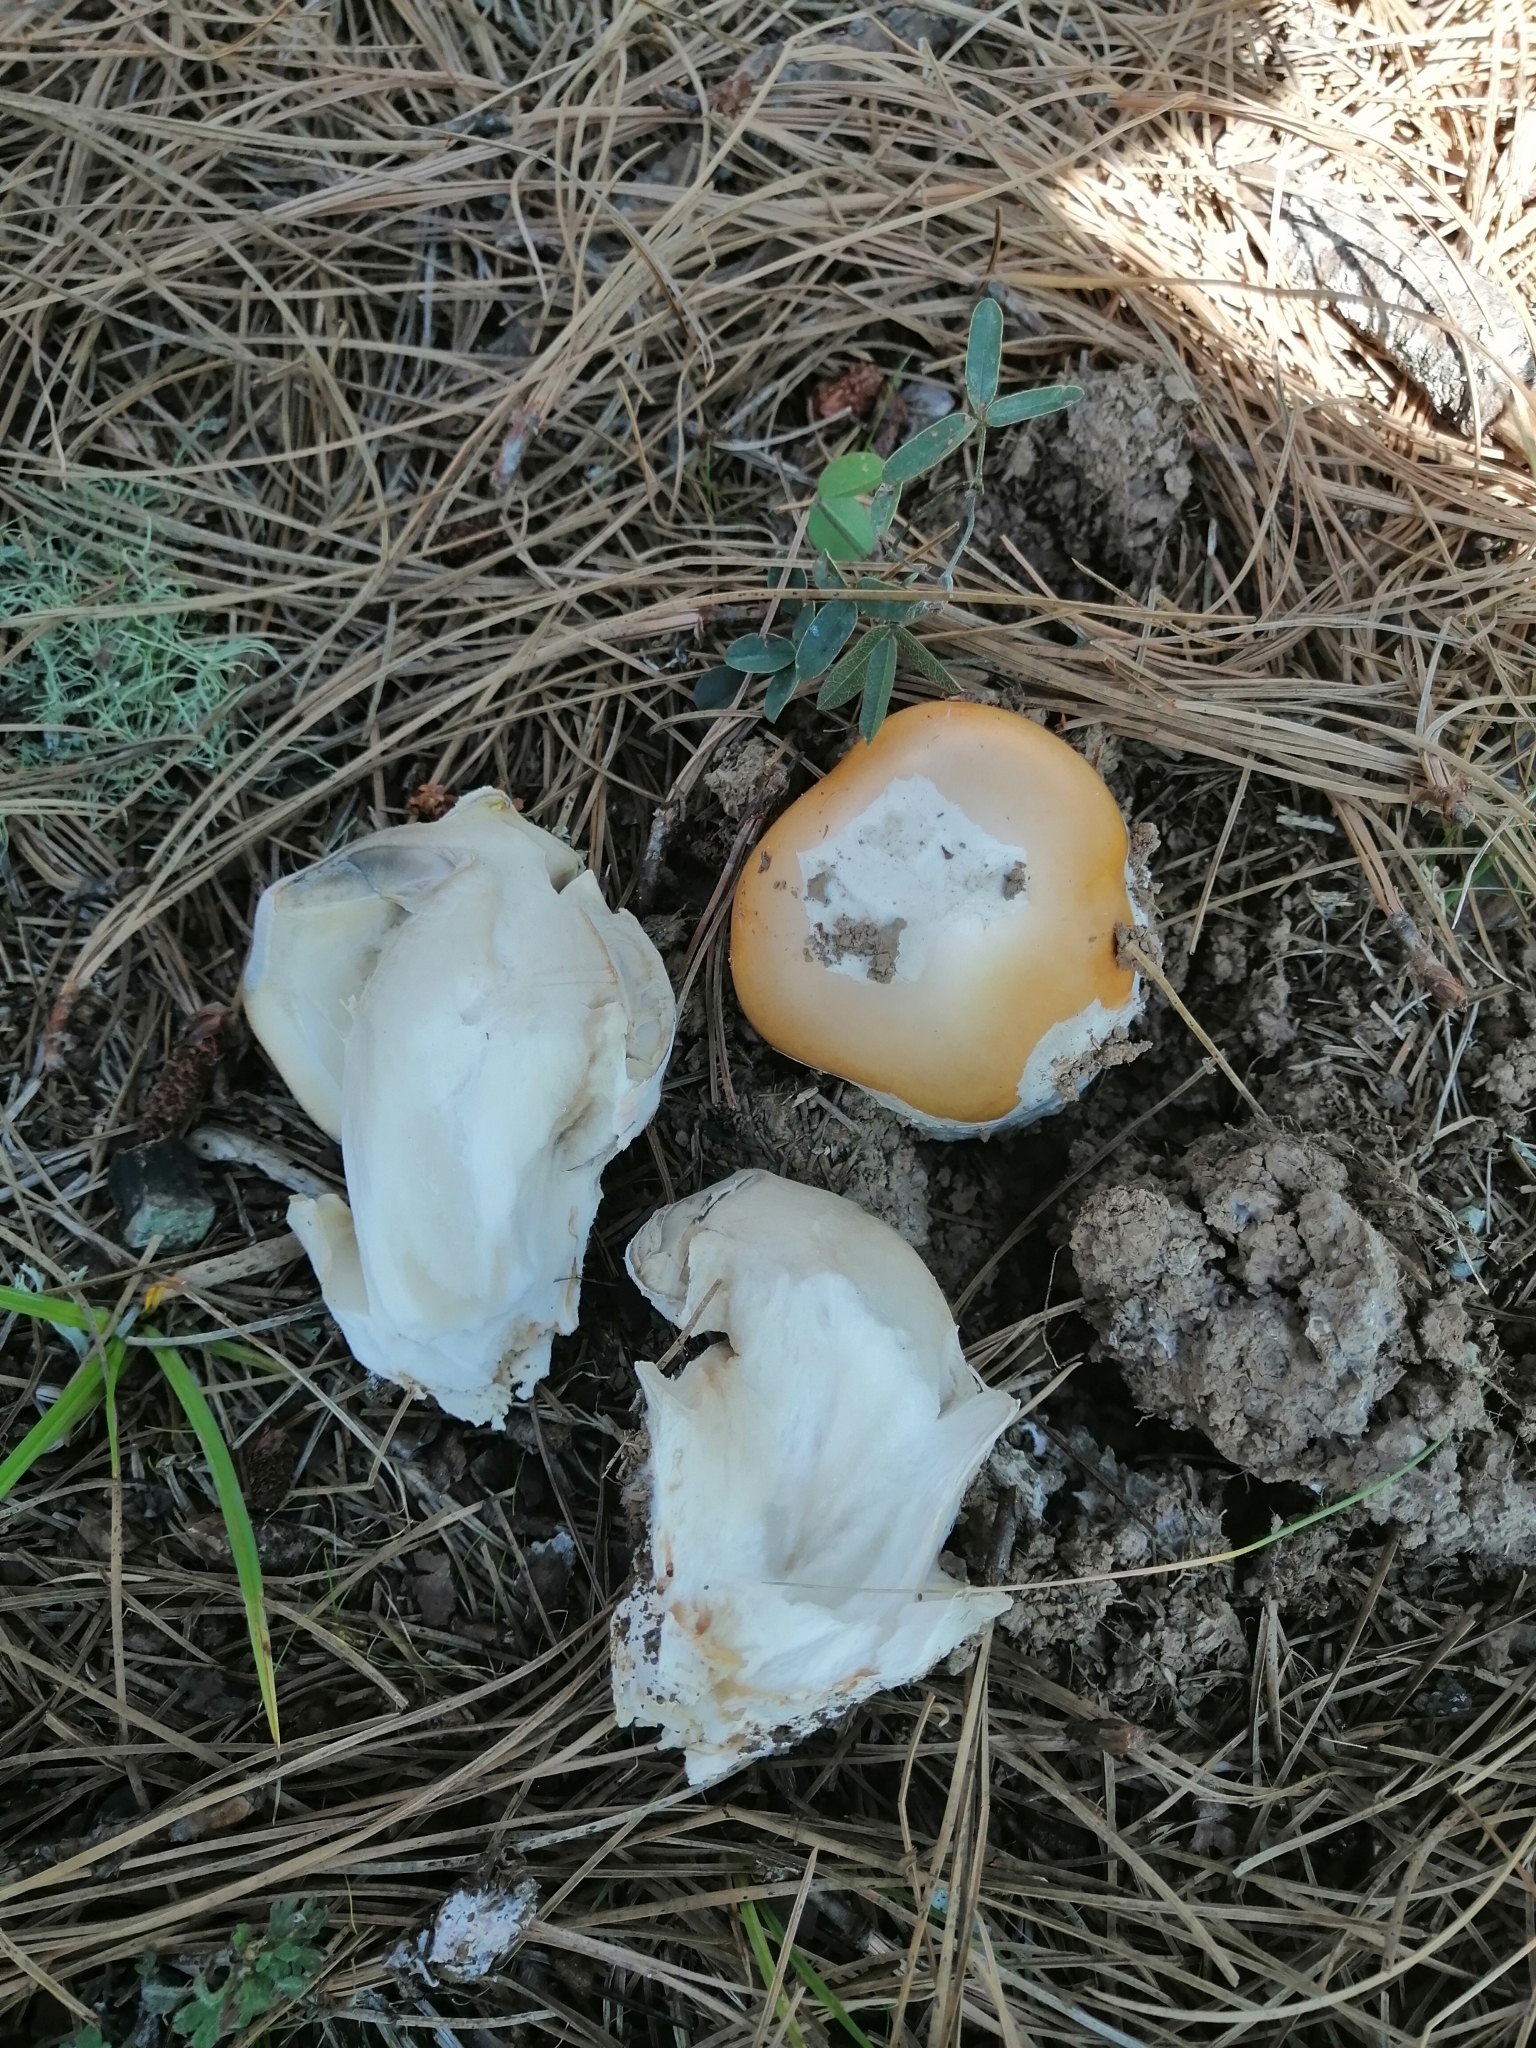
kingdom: Fungi
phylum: Basidiomycota
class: Agaricomycetes
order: Agaricales
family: Amanitaceae
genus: Amanita
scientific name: Amanita basii
